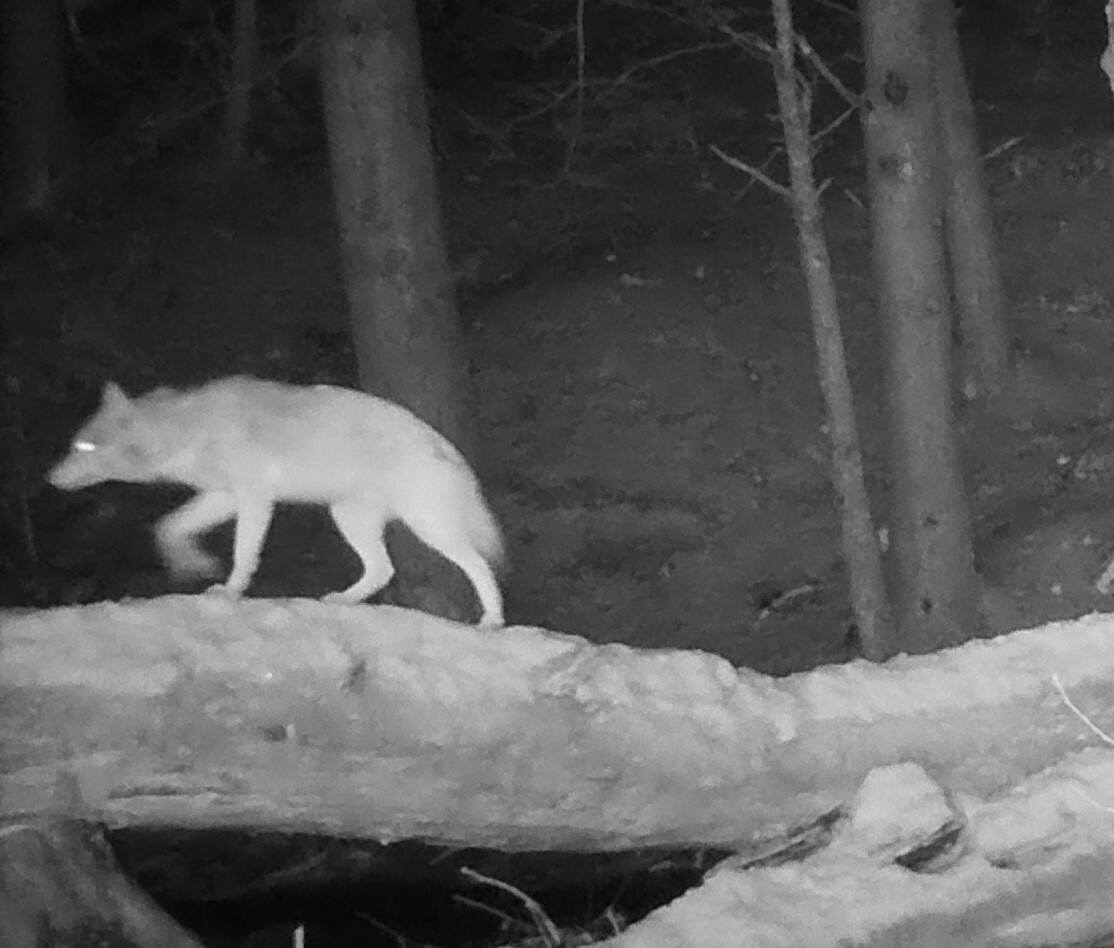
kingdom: Animalia
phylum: Chordata
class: Mammalia
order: Carnivora
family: Canidae
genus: Canis
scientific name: Canis latrans
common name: Coyote
